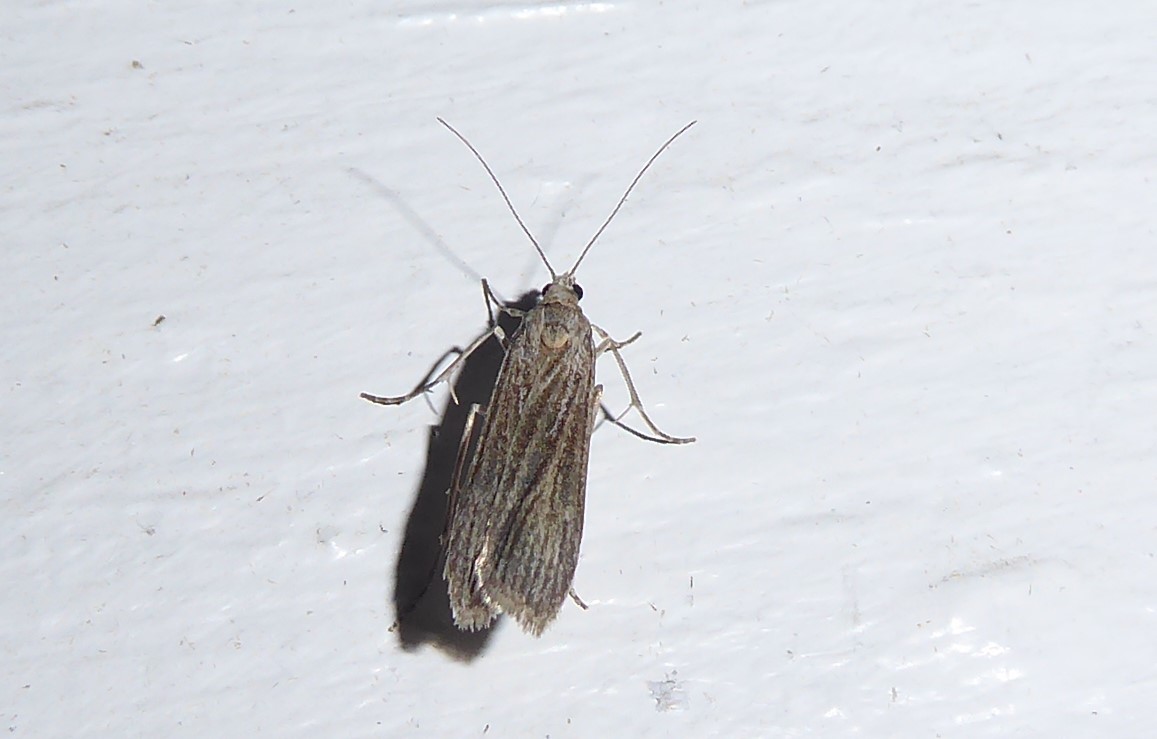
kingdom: Animalia
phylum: Arthropoda
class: Insecta
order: Lepidoptera
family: Crambidae
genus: Eudonia
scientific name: Eudonia atmogramma
